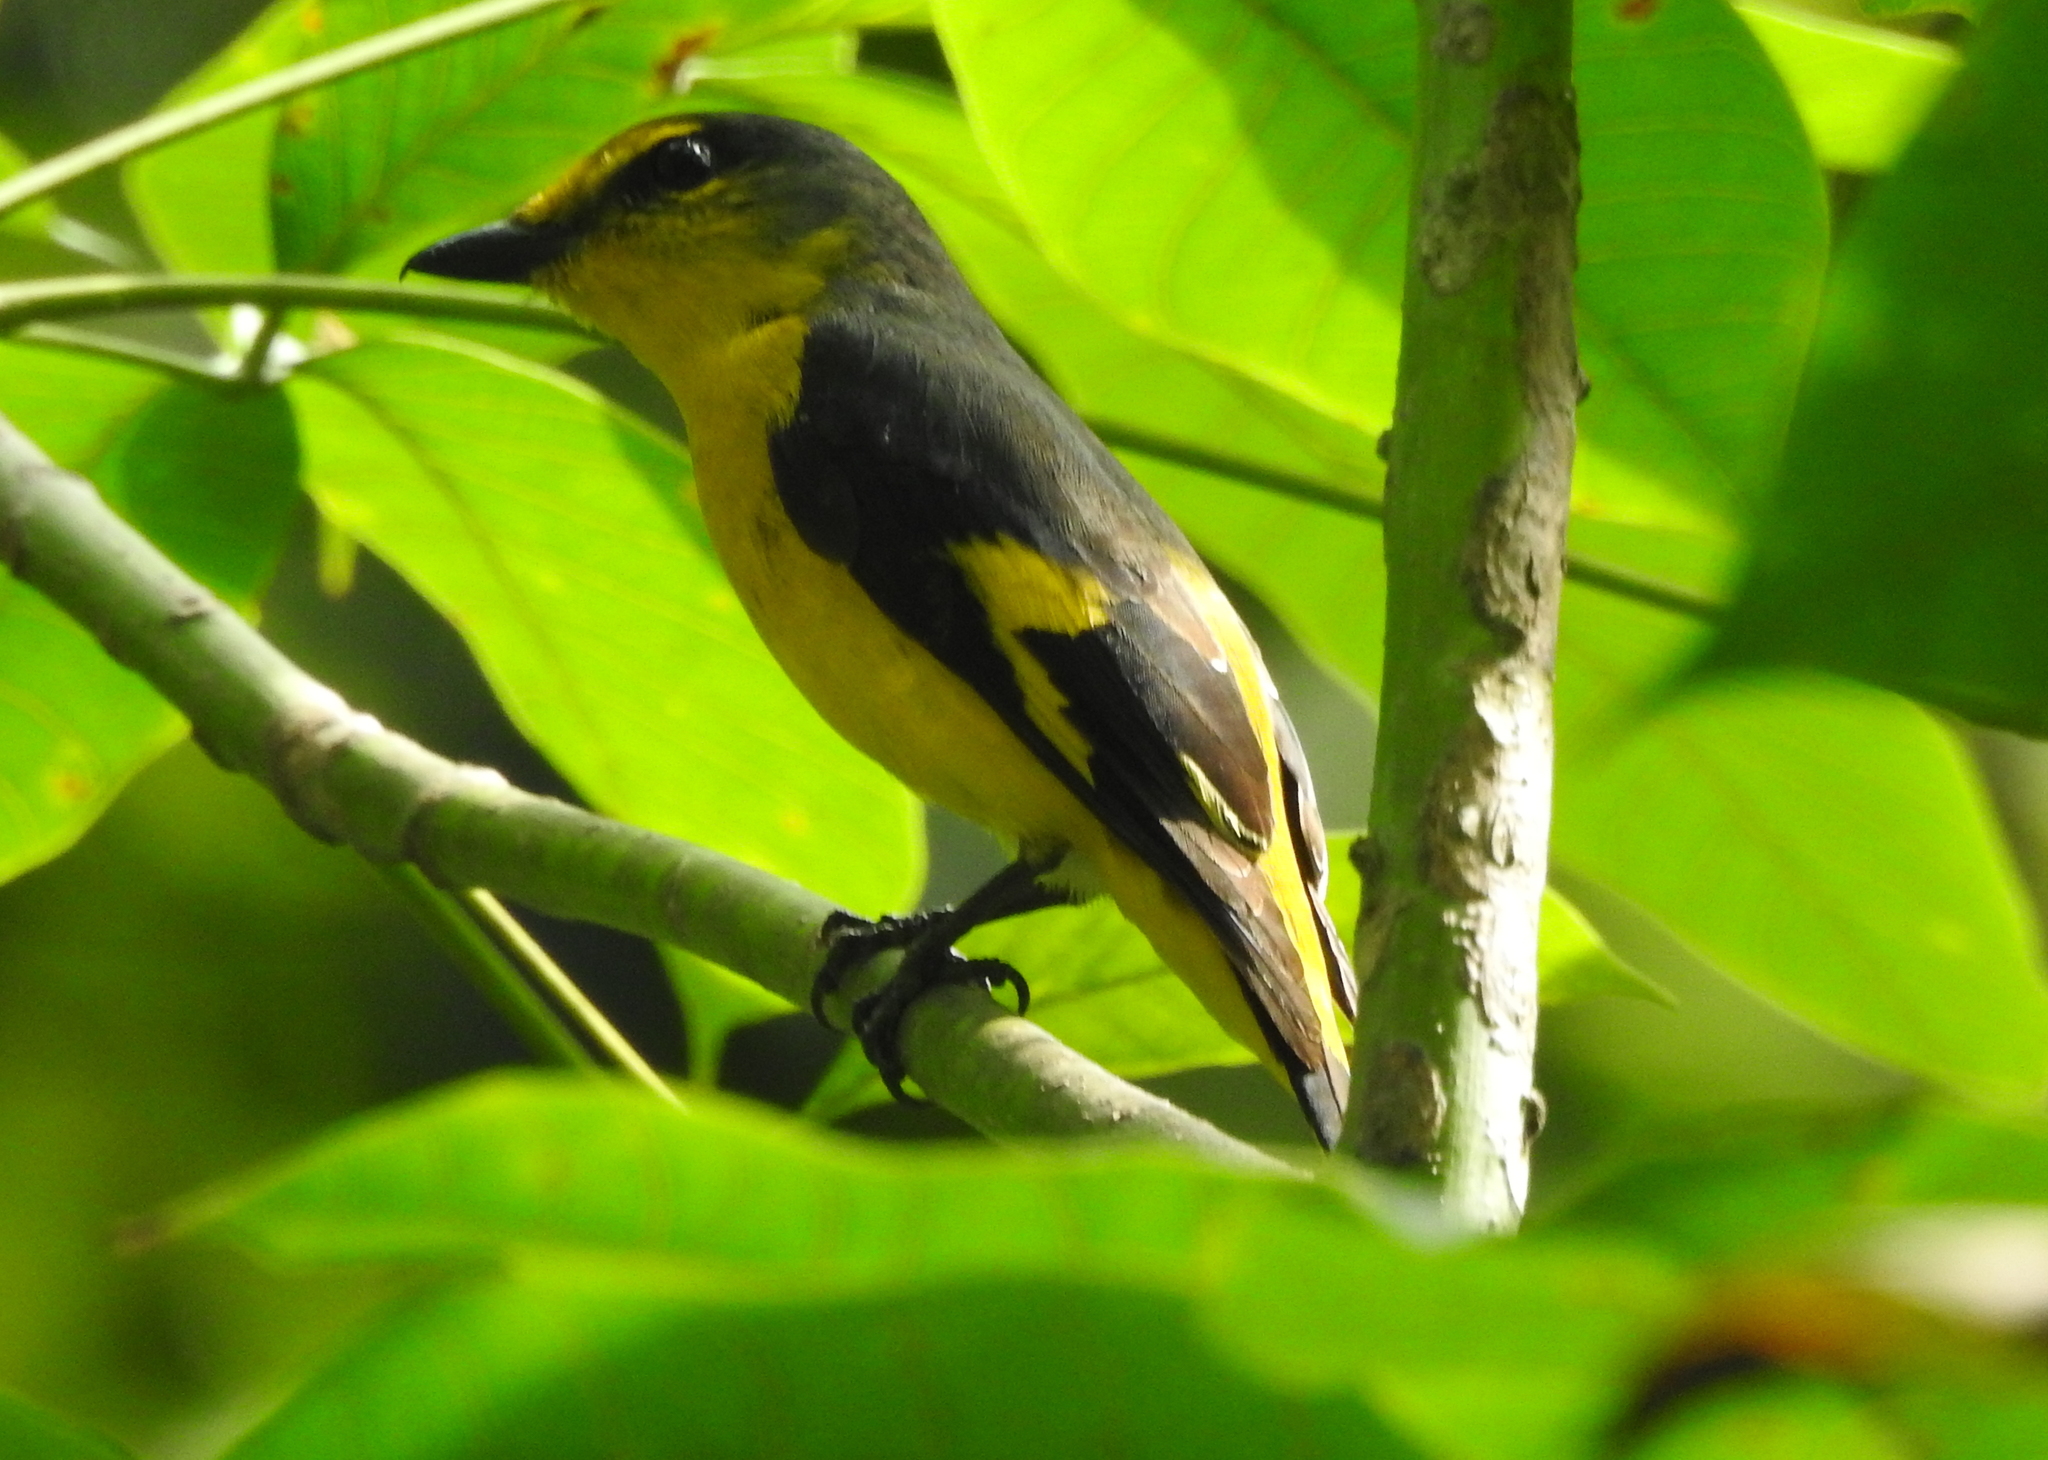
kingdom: Animalia
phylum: Chordata
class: Aves
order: Passeriformes
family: Campephagidae
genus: Pericrocotus
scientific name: Pericrocotus speciosus
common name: Scarlet minivet
